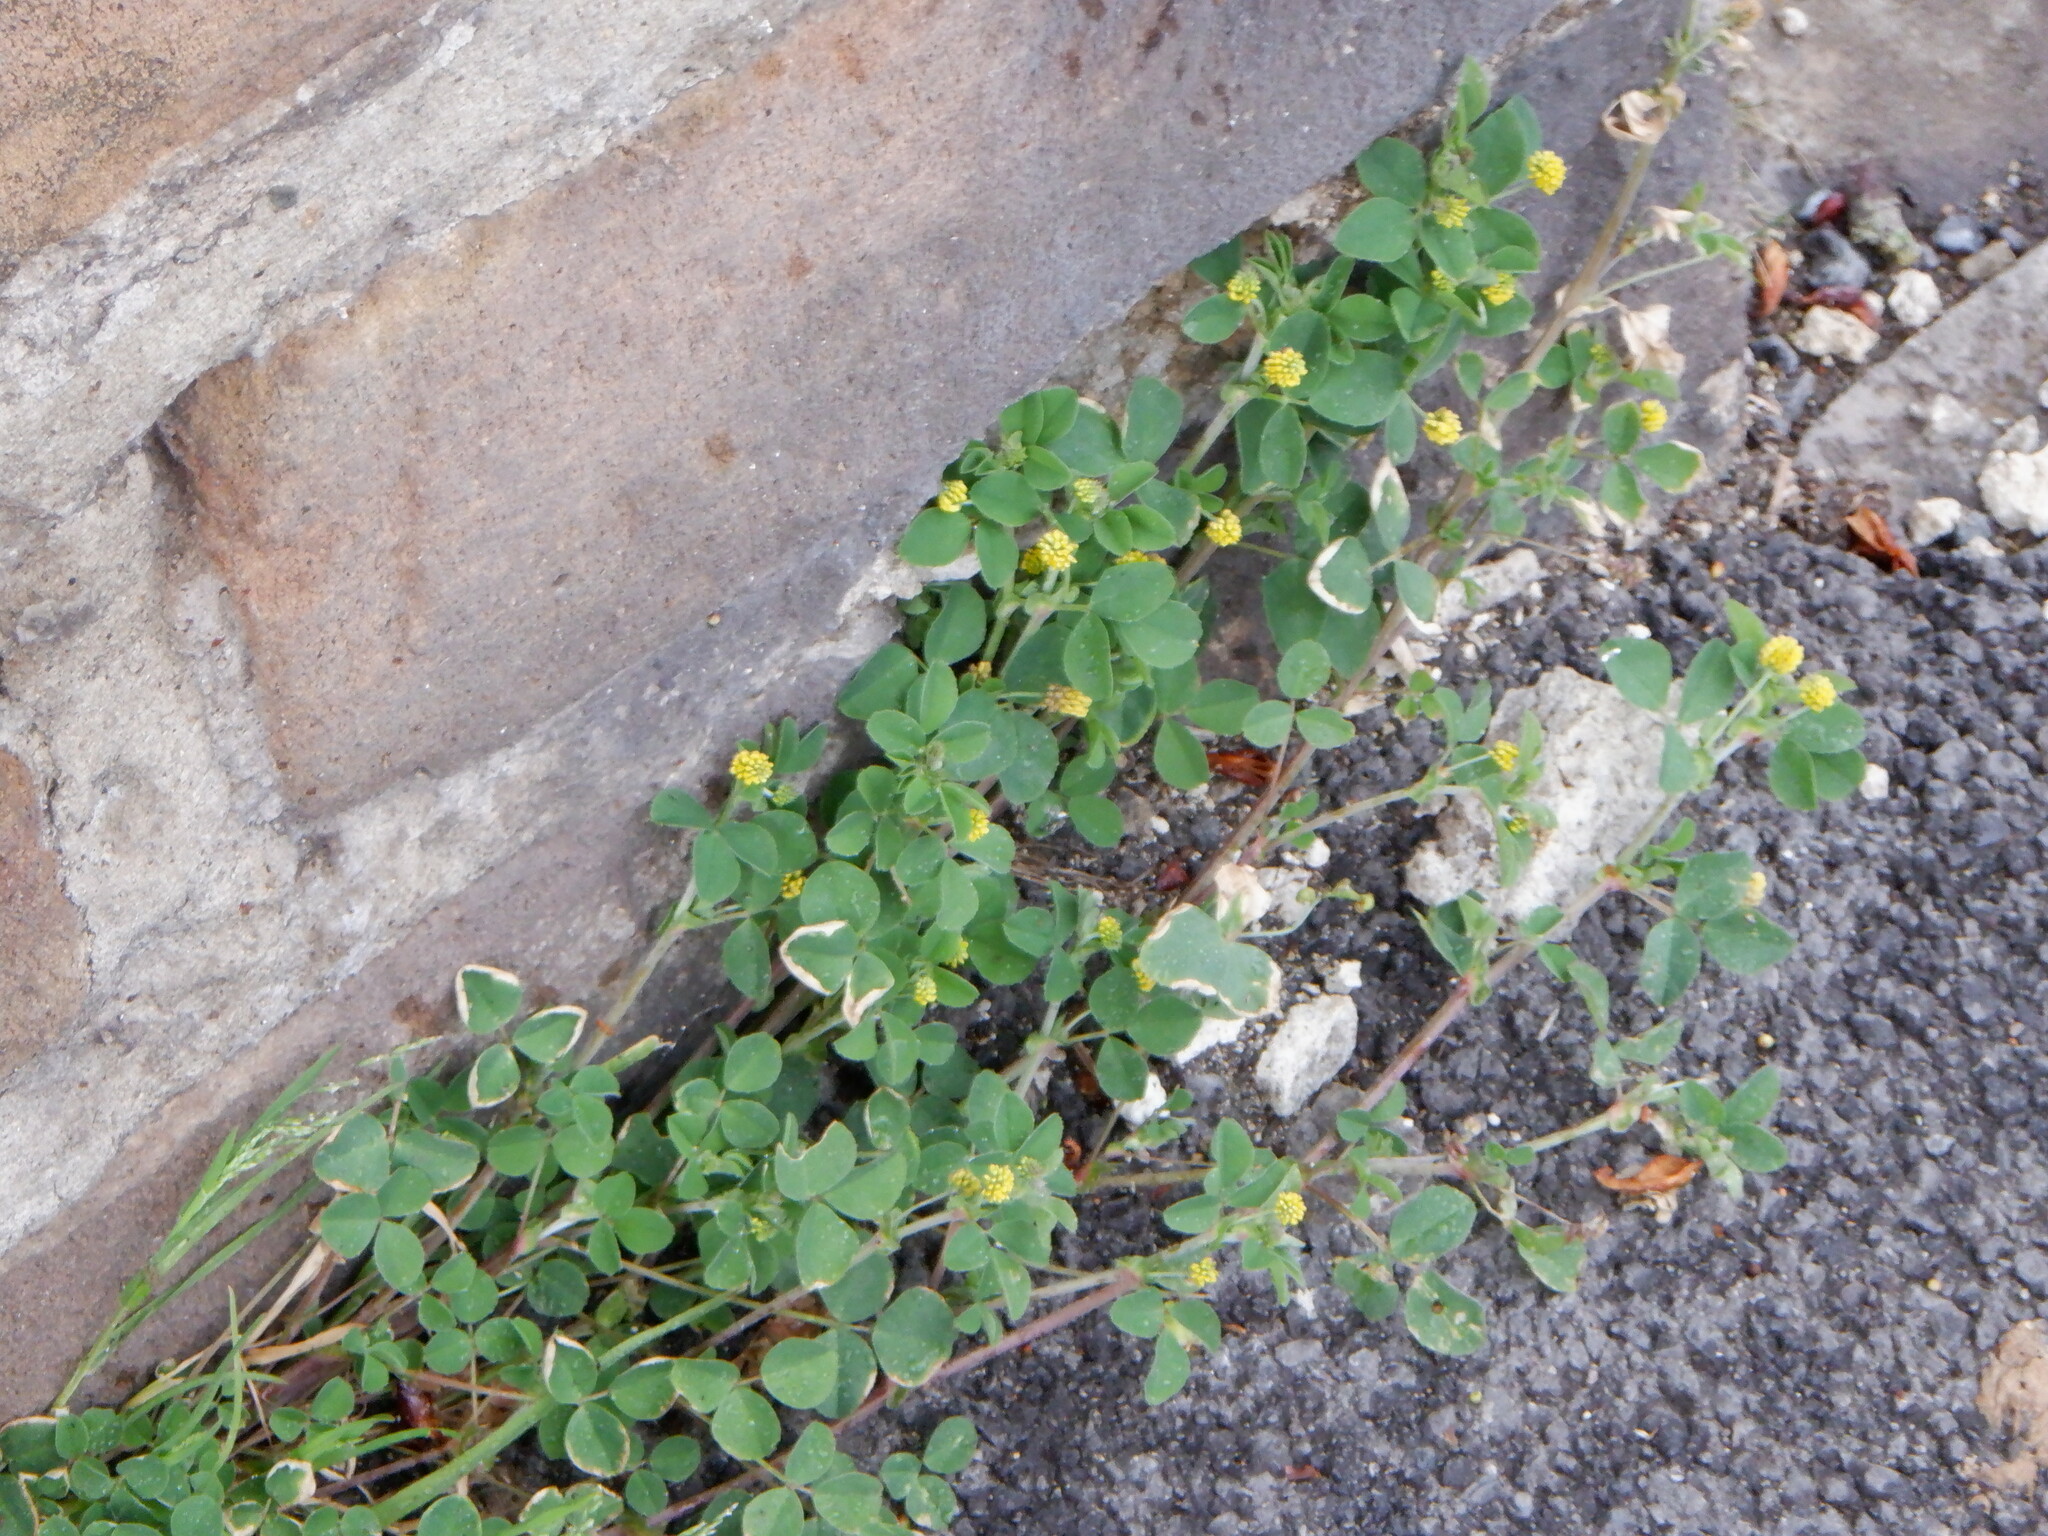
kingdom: Plantae
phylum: Tracheophyta
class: Magnoliopsida
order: Fabales
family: Fabaceae
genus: Medicago
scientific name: Medicago lupulina
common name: Black medick
